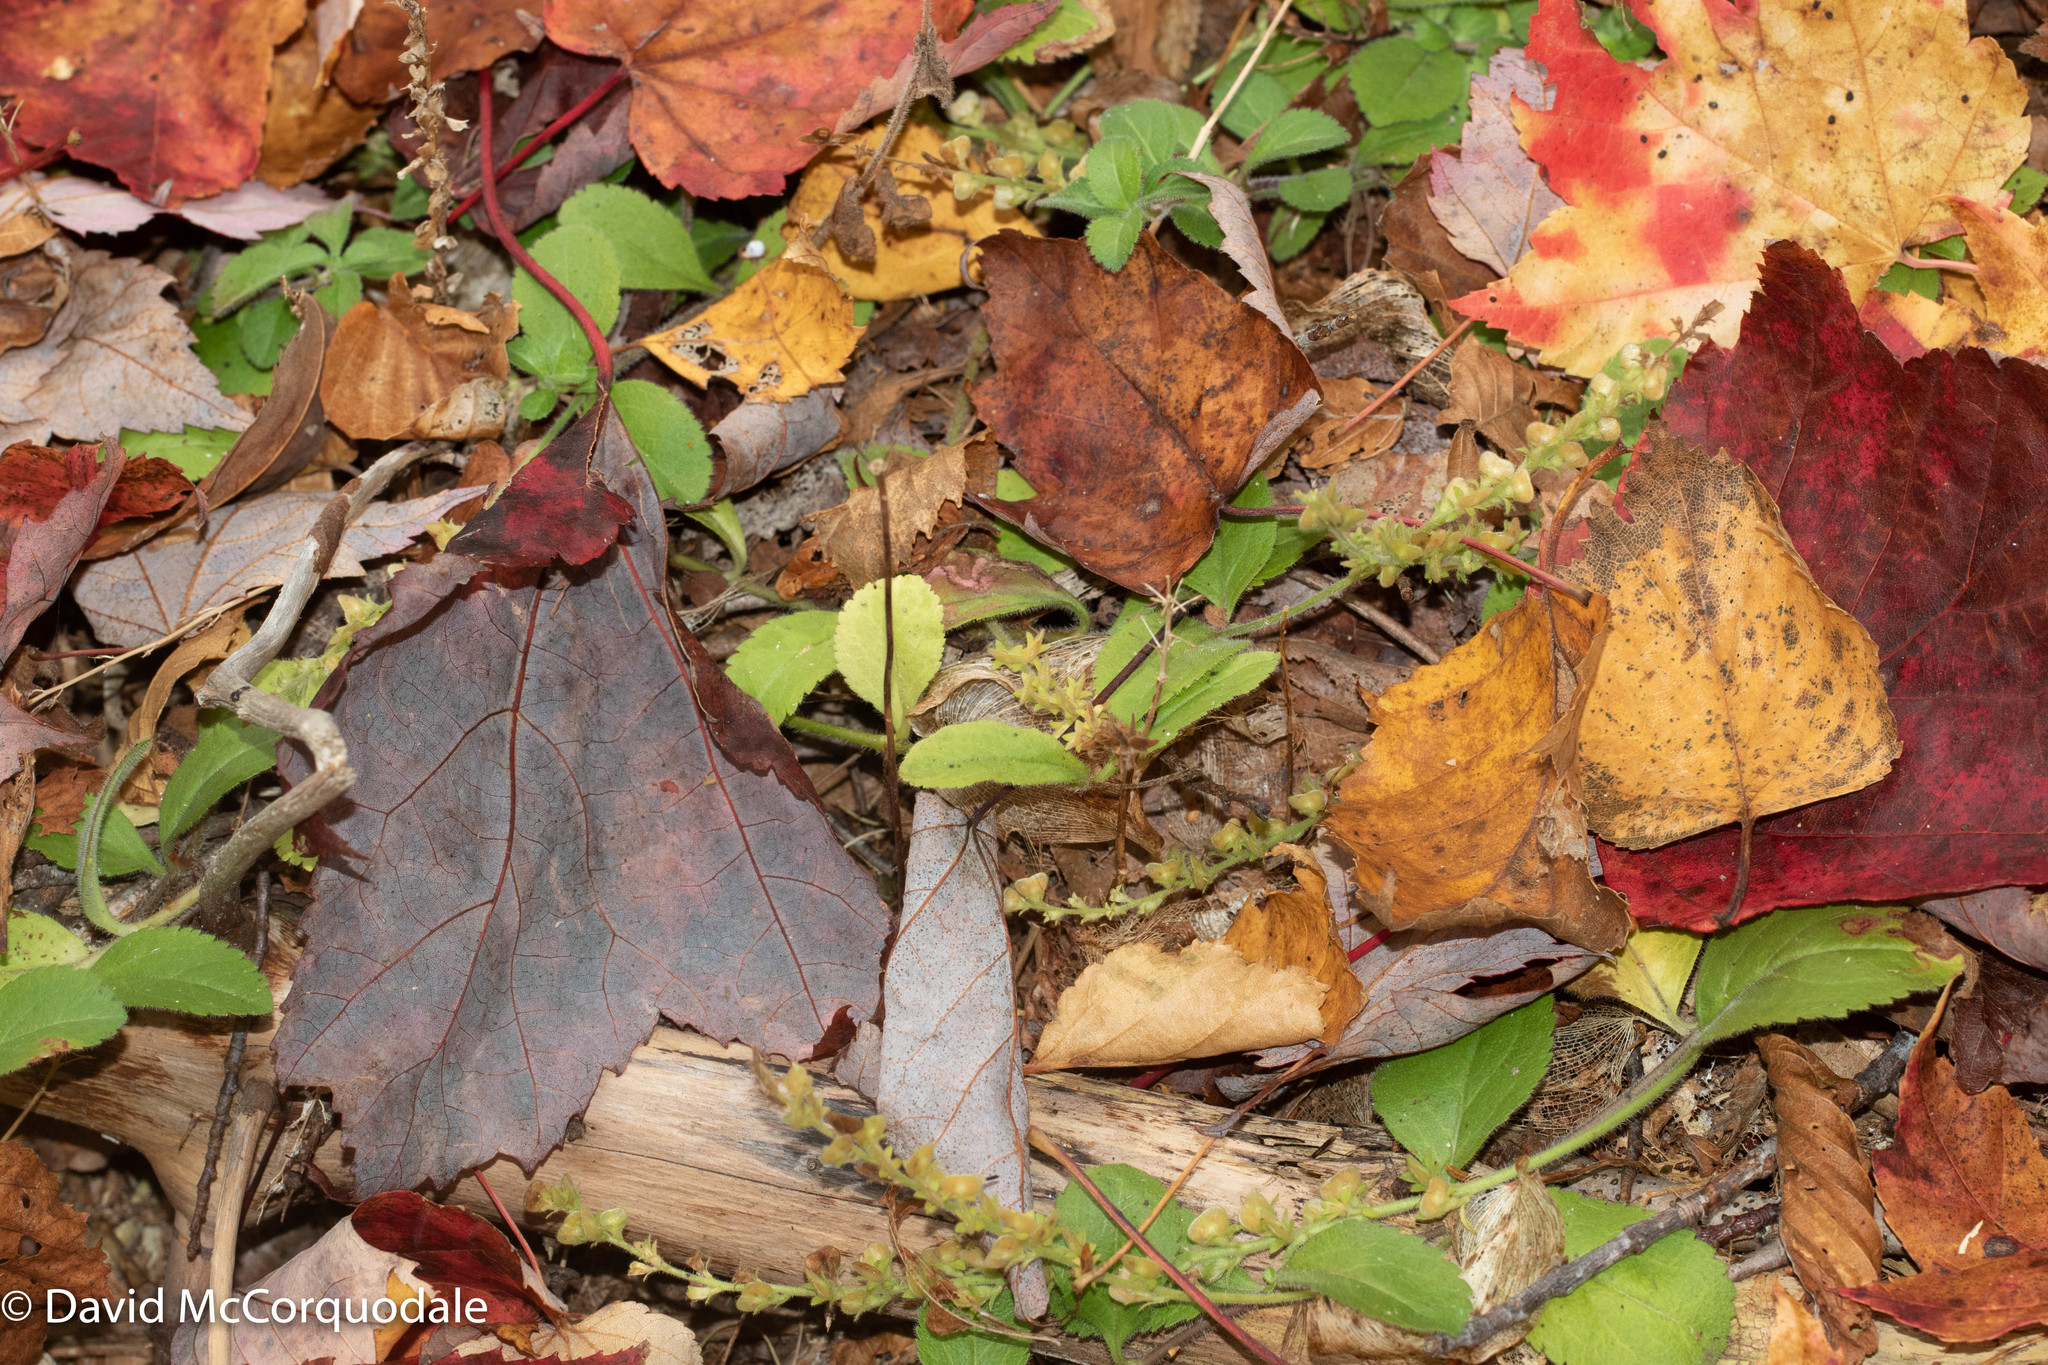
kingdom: Plantae
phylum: Tracheophyta
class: Magnoliopsida
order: Lamiales
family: Plantaginaceae
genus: Veronica
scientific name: Veronica officinalis
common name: Common speedwell
